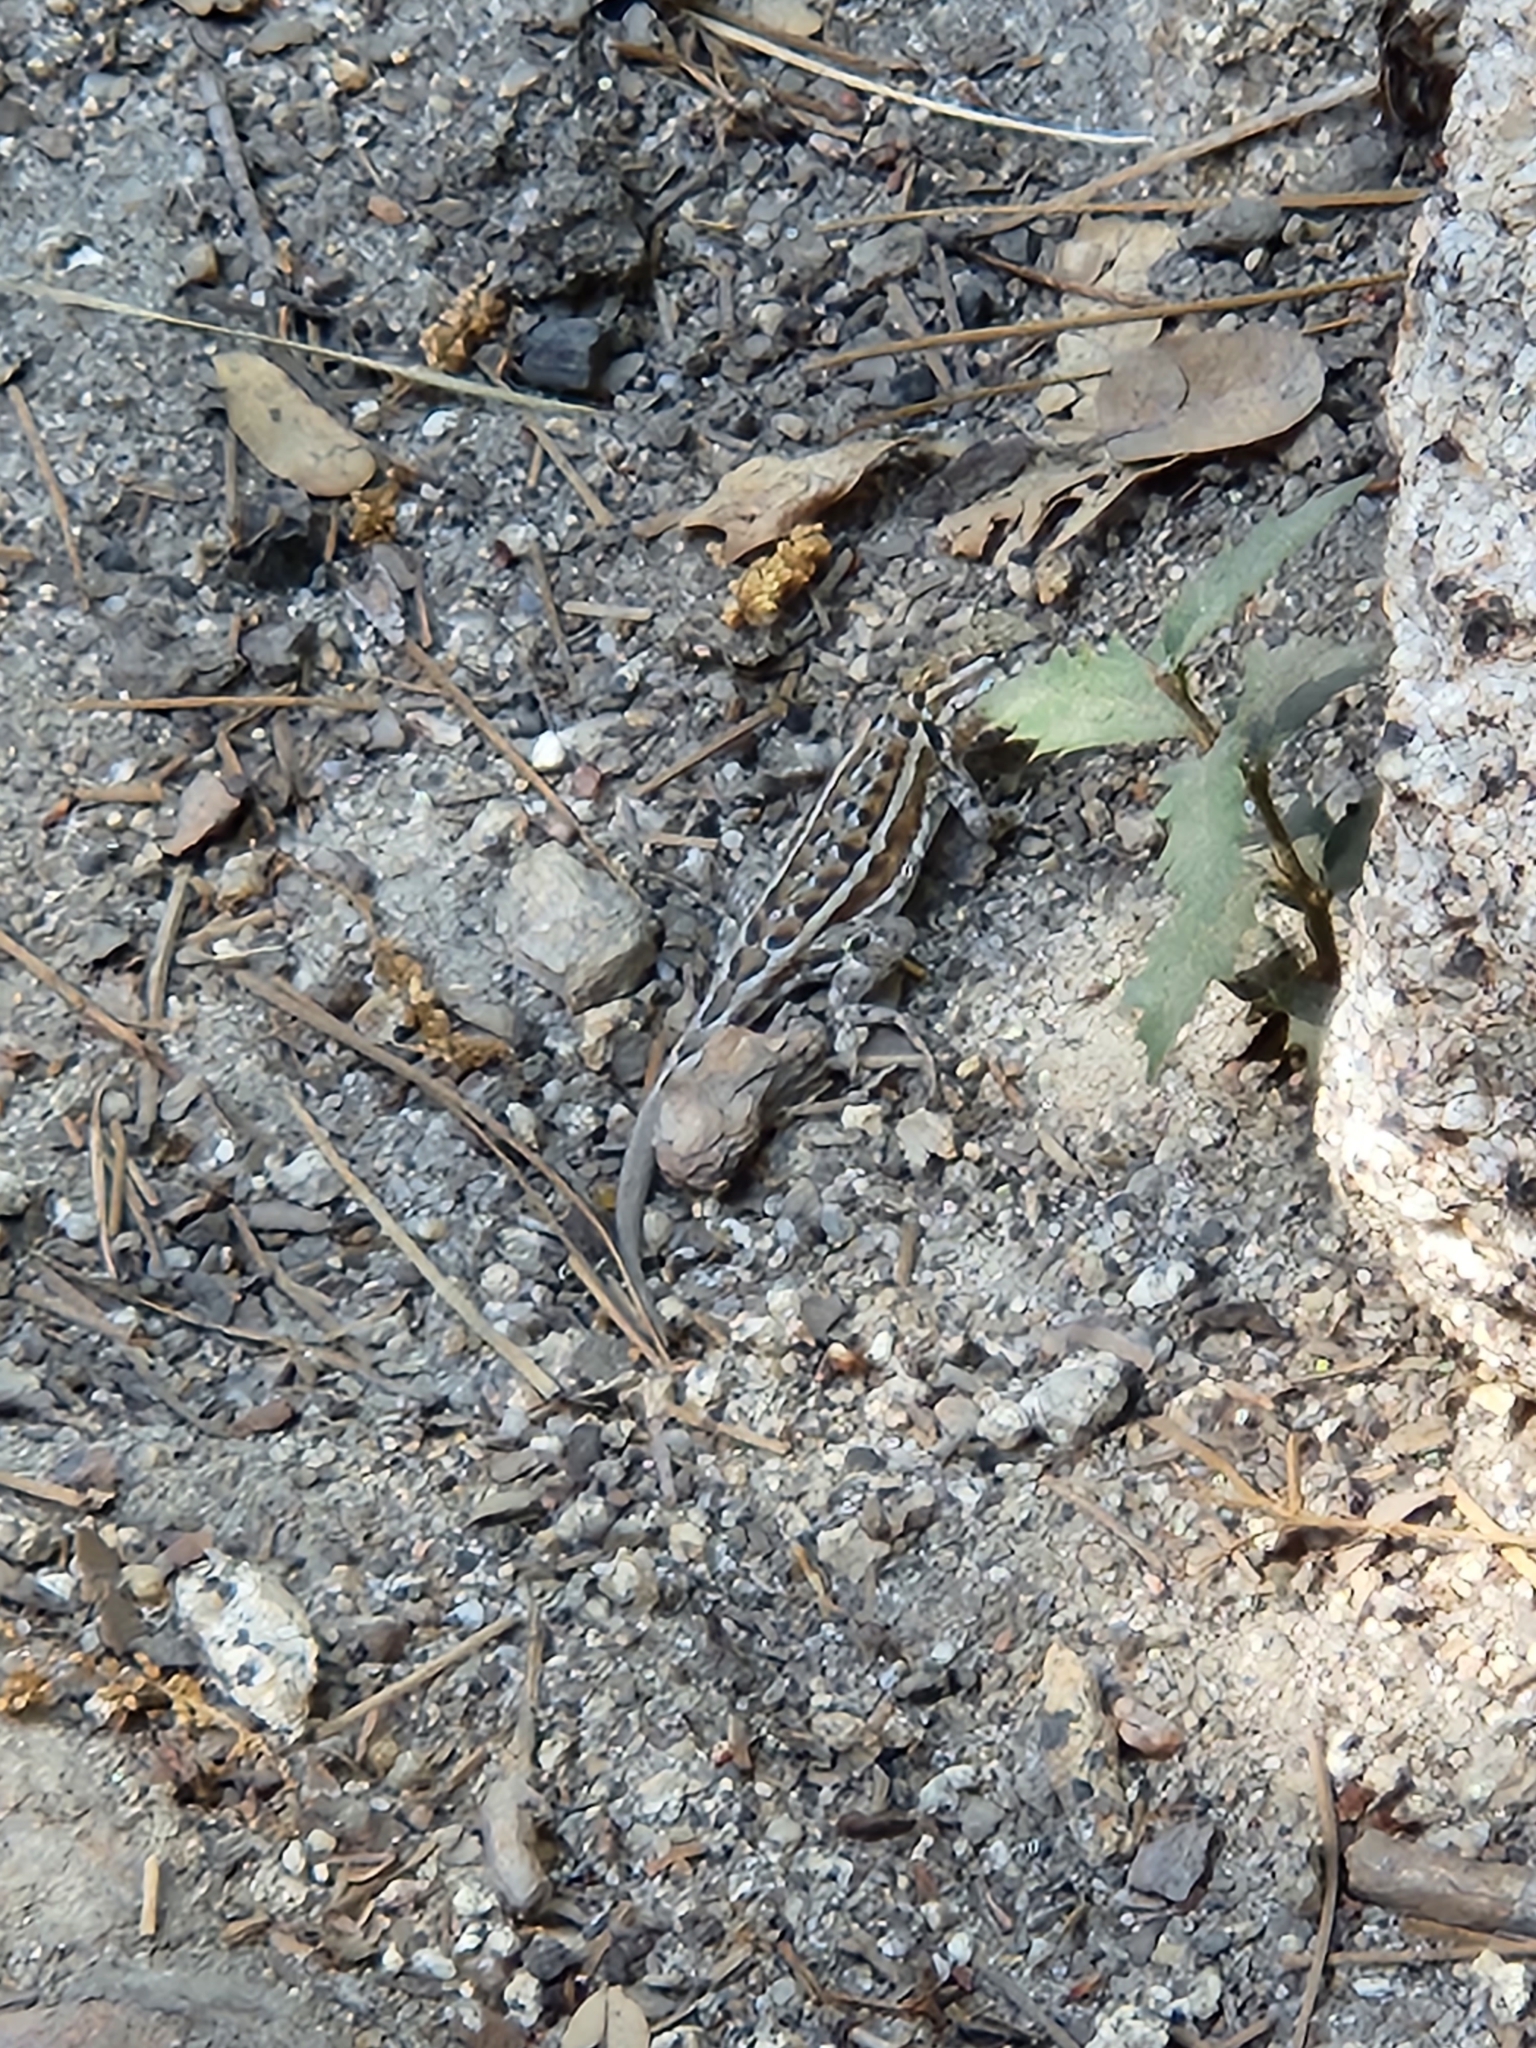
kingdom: Animalia
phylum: Chordata
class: Squamata
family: Phrynosomatidae
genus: Uta
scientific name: Uta stansburiana
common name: Side-blotched lizard
